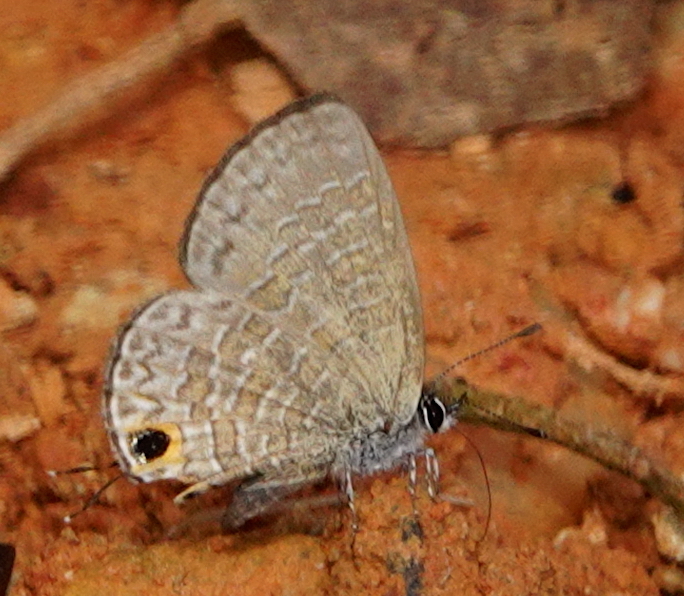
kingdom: Animalia
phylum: Arthropoda
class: Insecta
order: Lepidoptera
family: Lycaenidae
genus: Prosotas
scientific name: Prosotas nora
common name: Common line blue
